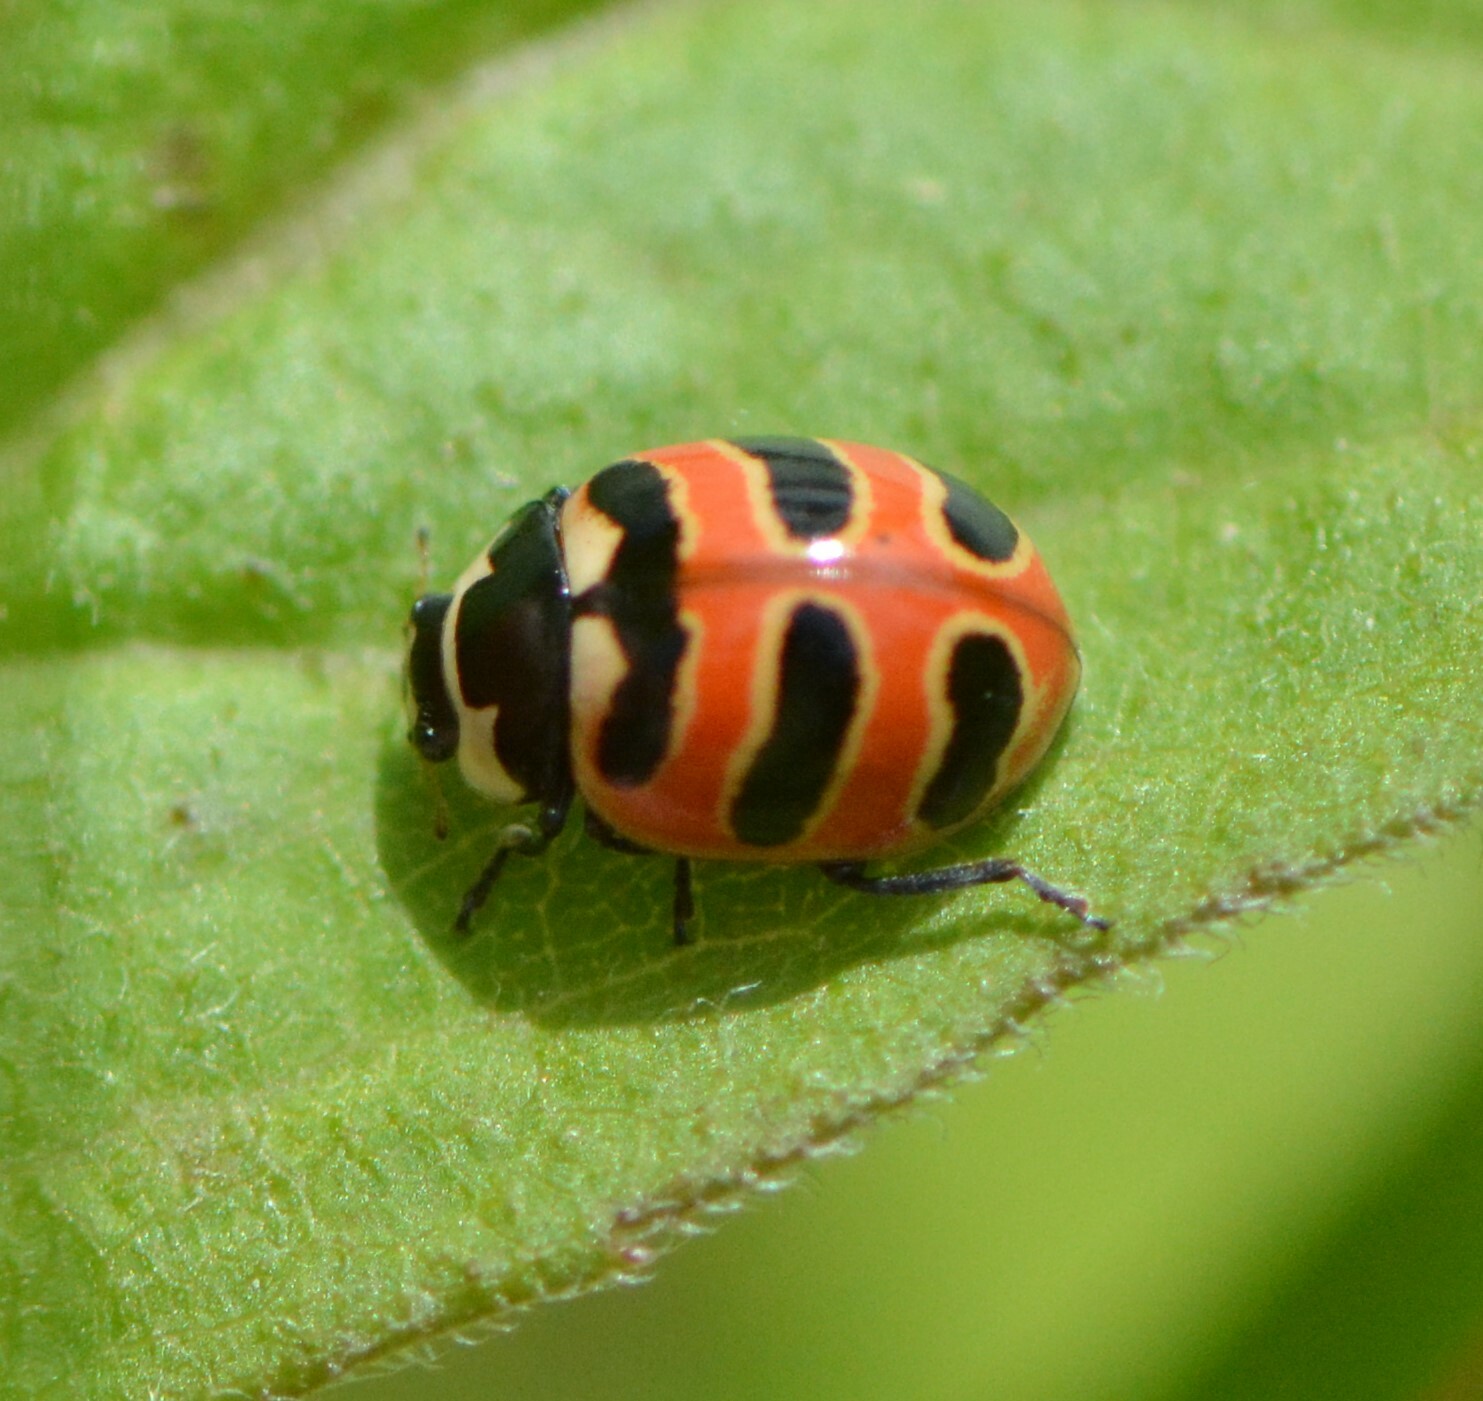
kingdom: Animalia
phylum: Arthropoda
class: Insecta
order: Coleoptera
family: Coccinellidae
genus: Coccinella
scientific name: Coccinella trifasciata
